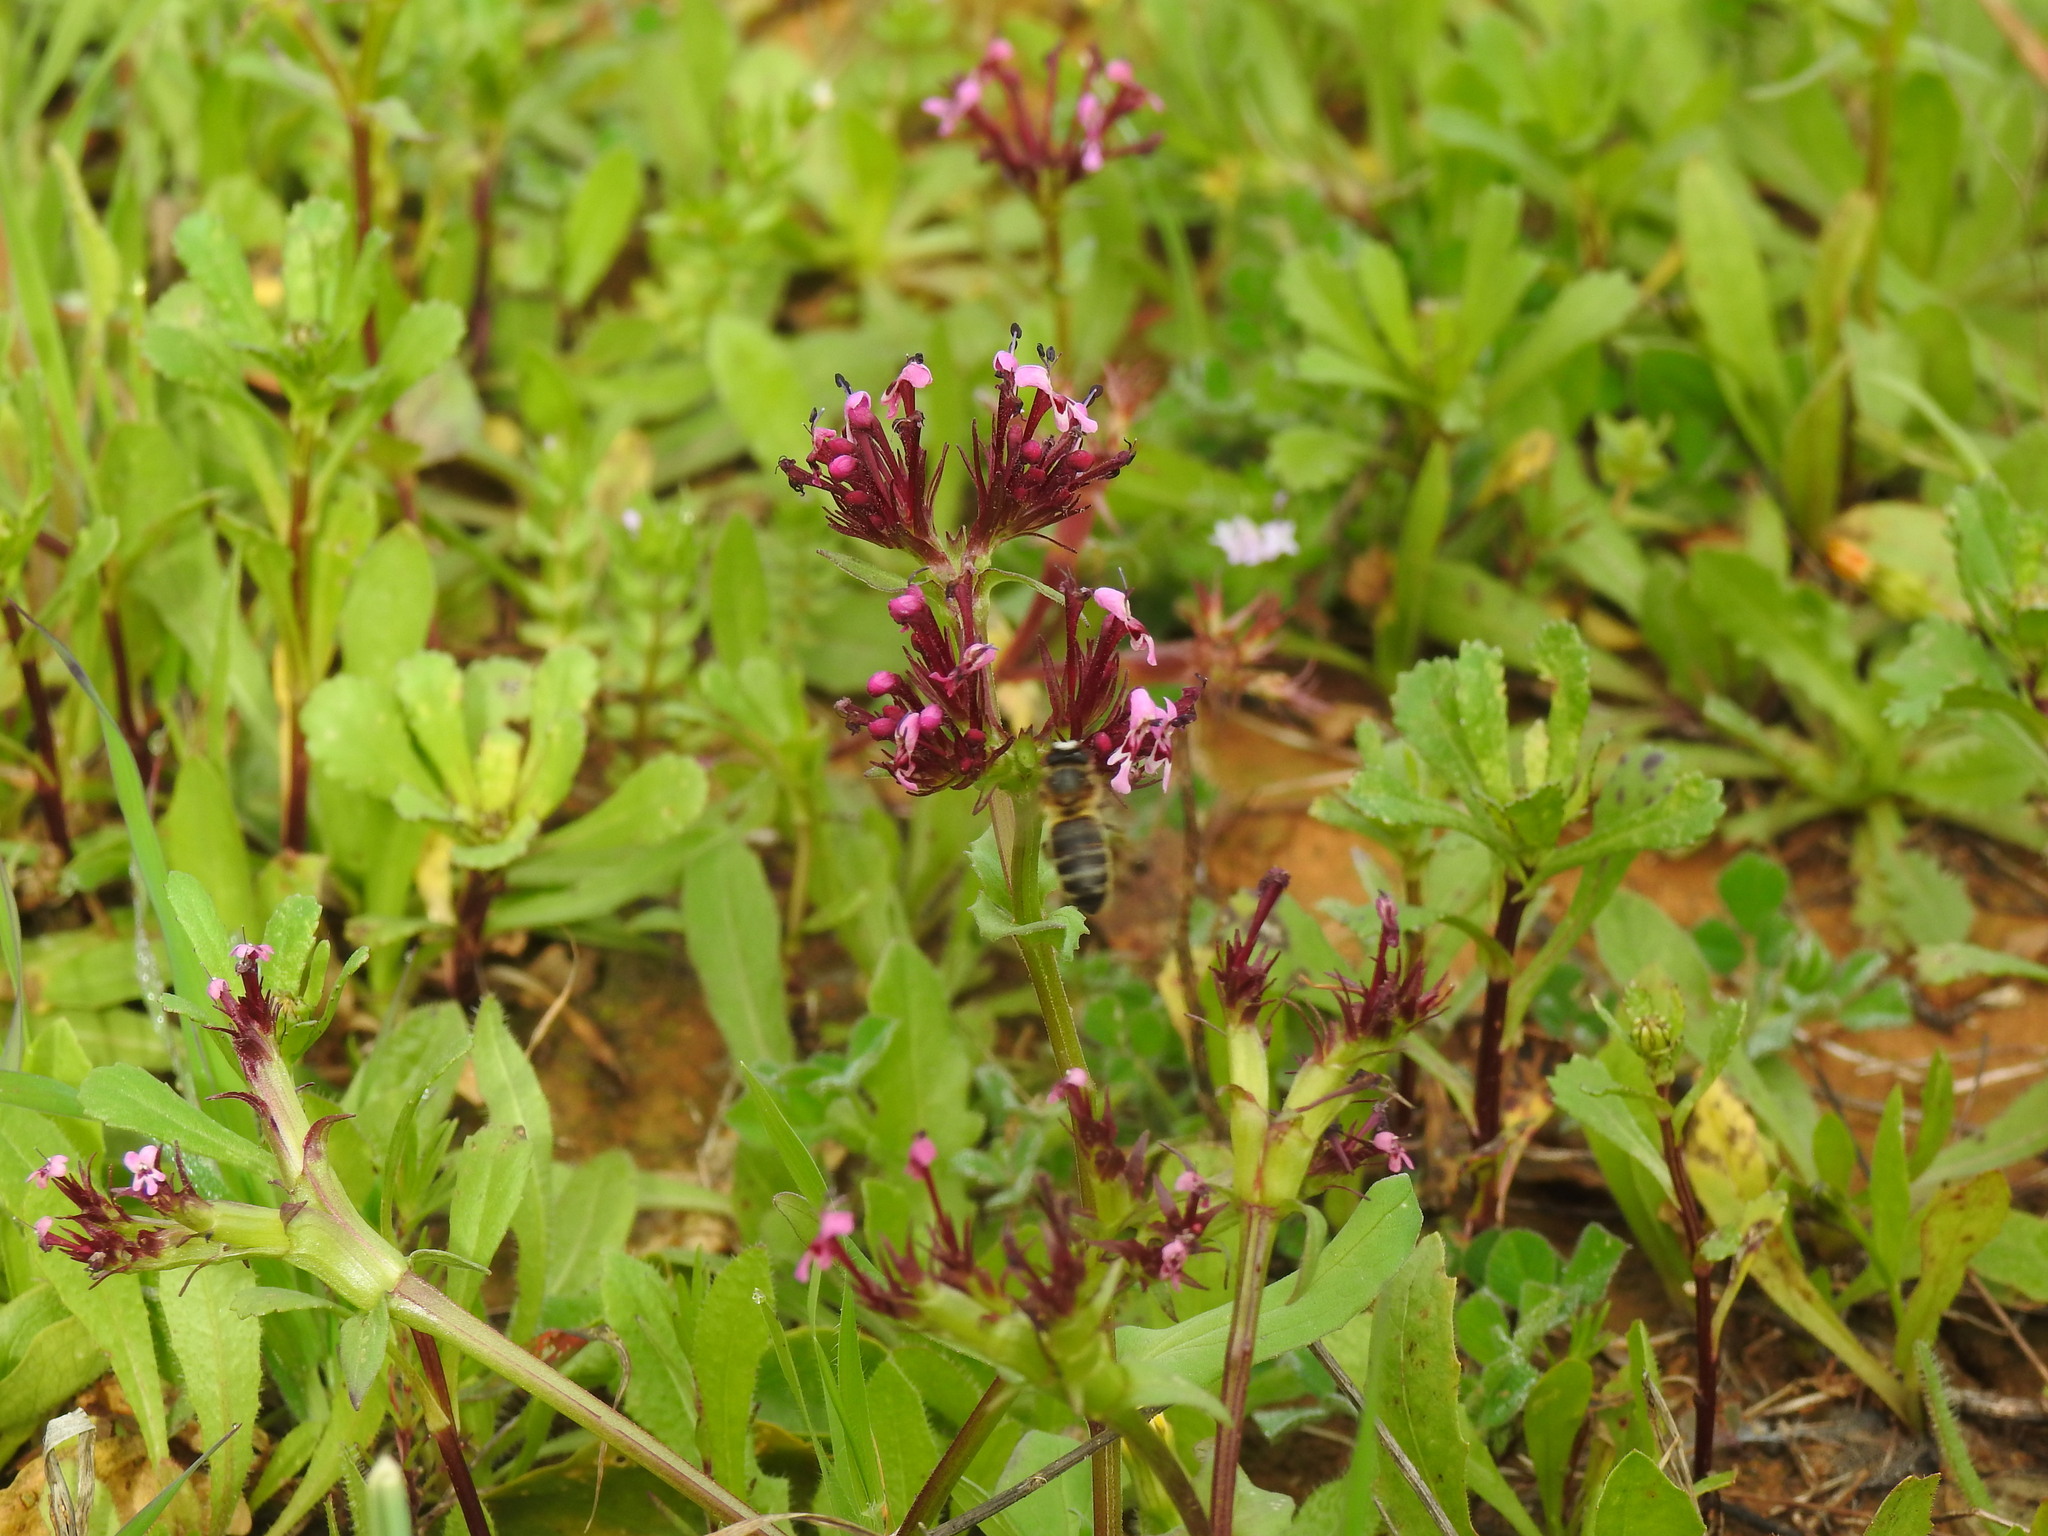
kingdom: Plantae
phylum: Tracheophyta
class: Magnoliopsida
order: Dipsacales
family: Caprifoliaceae
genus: Fedia
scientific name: Fedia cornucopiae
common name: Horn-of-plenty
